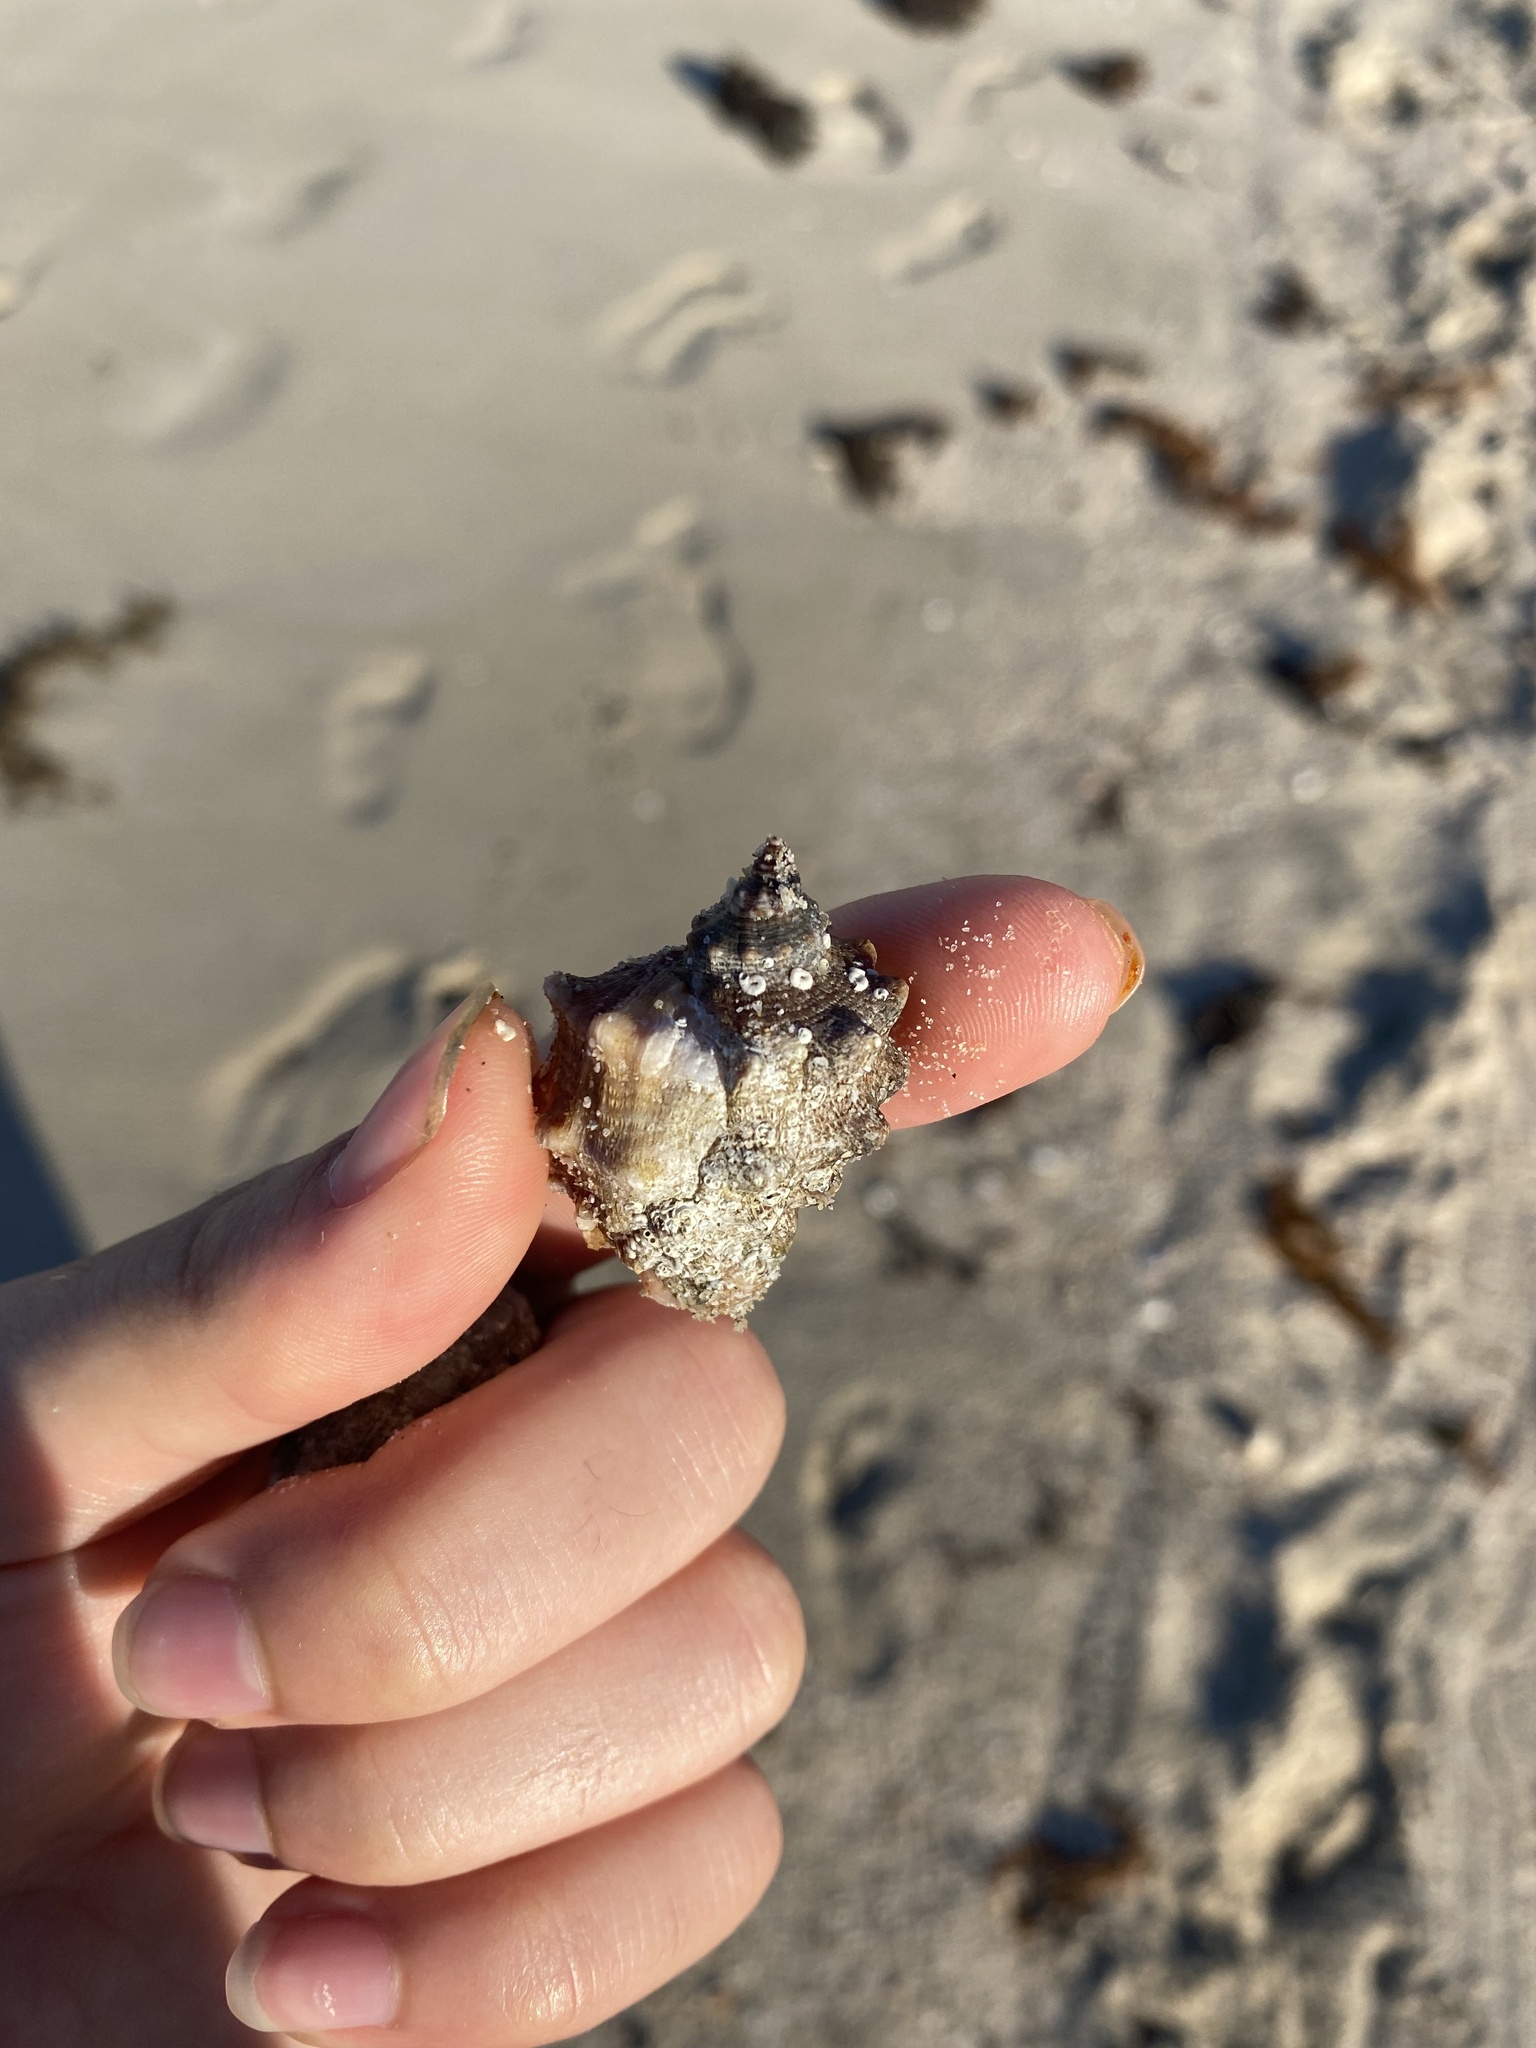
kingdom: Animalia
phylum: Mollusca
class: Gastropoda
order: Neogastropoda
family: Muricidae
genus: Neorapana
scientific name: Neorapana tuberculata
